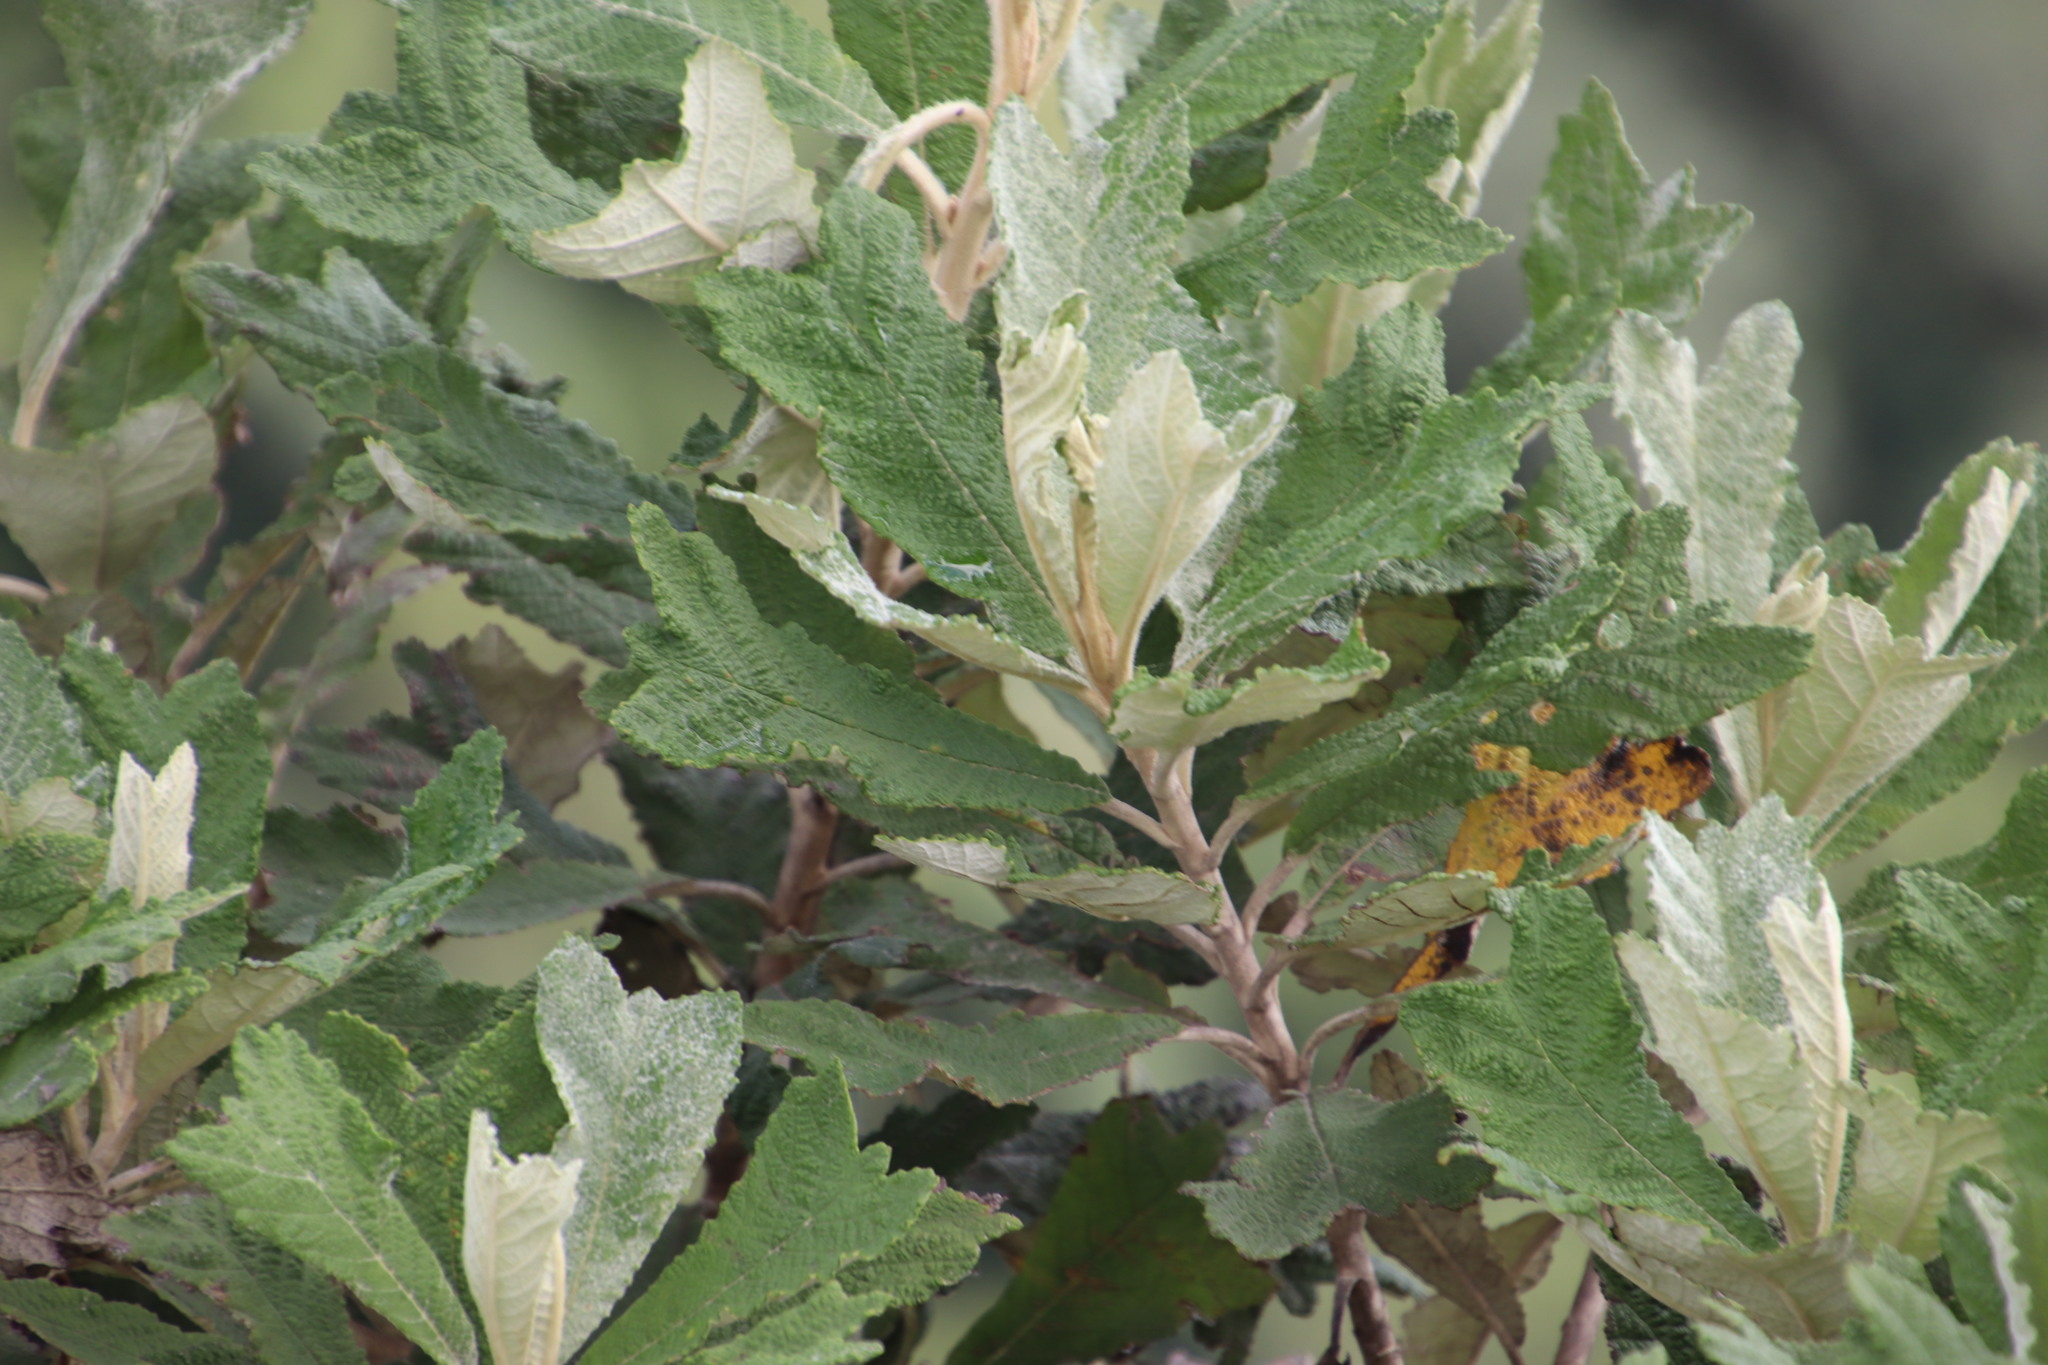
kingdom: Plantae
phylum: Tracheophyta
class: Magnoliopsida
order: Asterales
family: Asteraceae
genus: Tarchonanthus
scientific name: Tarchonanthus trilobus
